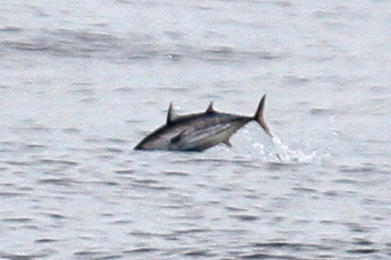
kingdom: Animalia
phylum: Chordata
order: Perciformes
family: Scombridae
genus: Katsuwonus
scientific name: Katsuwonus pelamis
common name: Skipjack tuna
